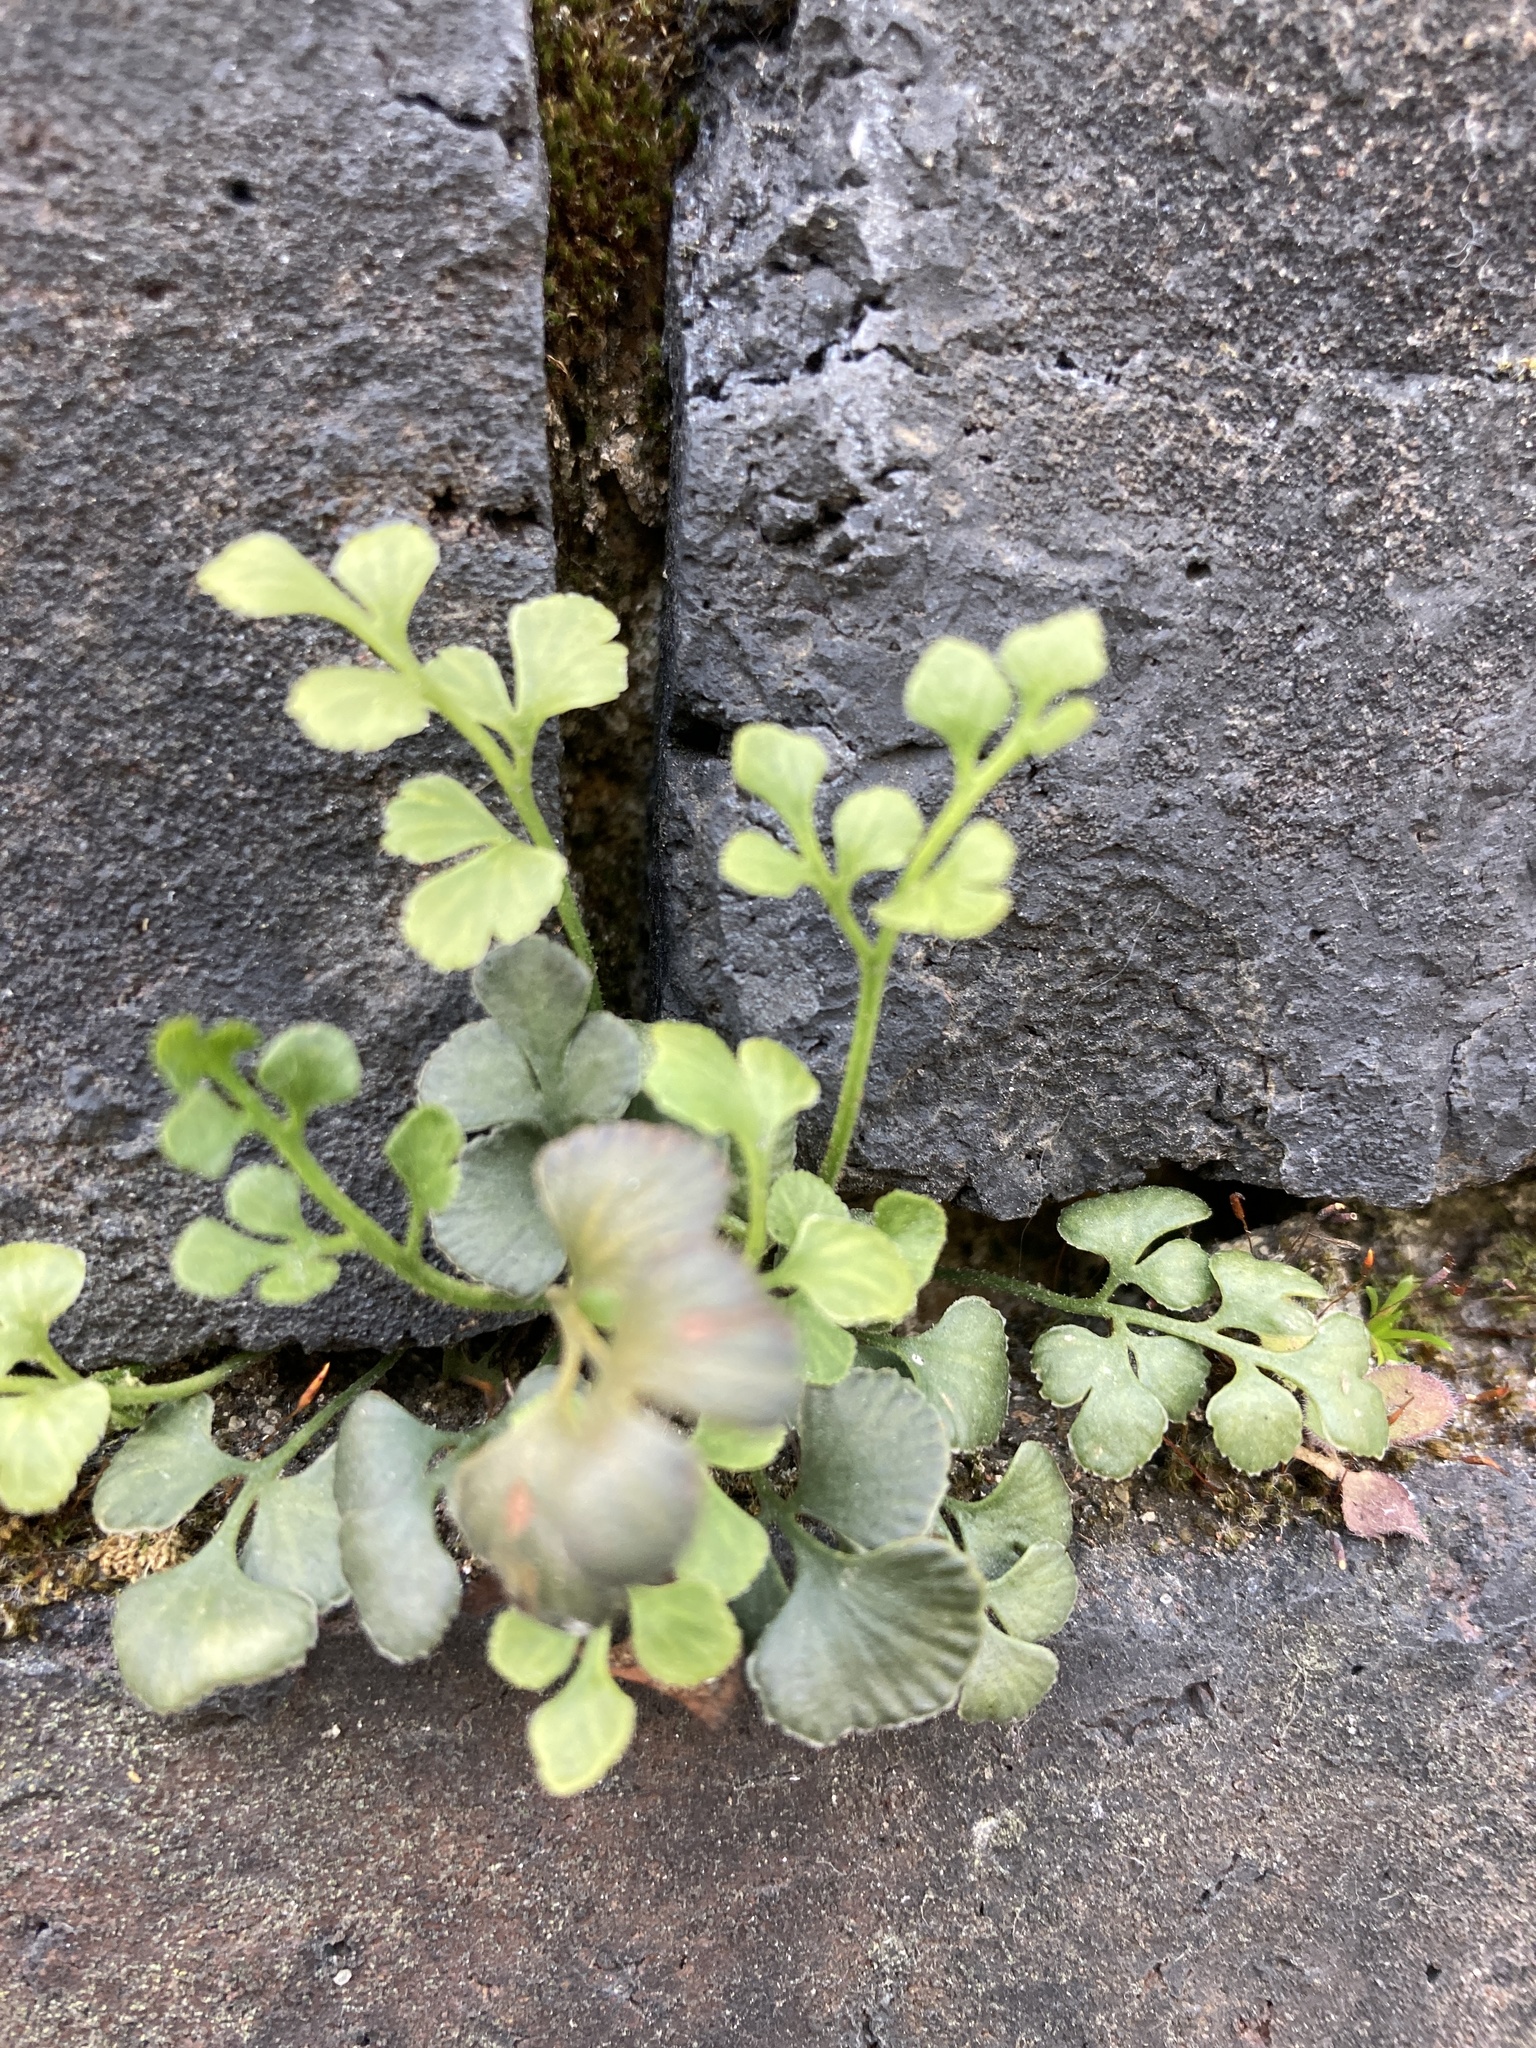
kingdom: Plantae
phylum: Tracheophyta
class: Polypodiopsida
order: Polypodiales
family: Aspleniaceae
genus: Asplenium
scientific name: Asplenium ruta-muraria
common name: Wall-rue
